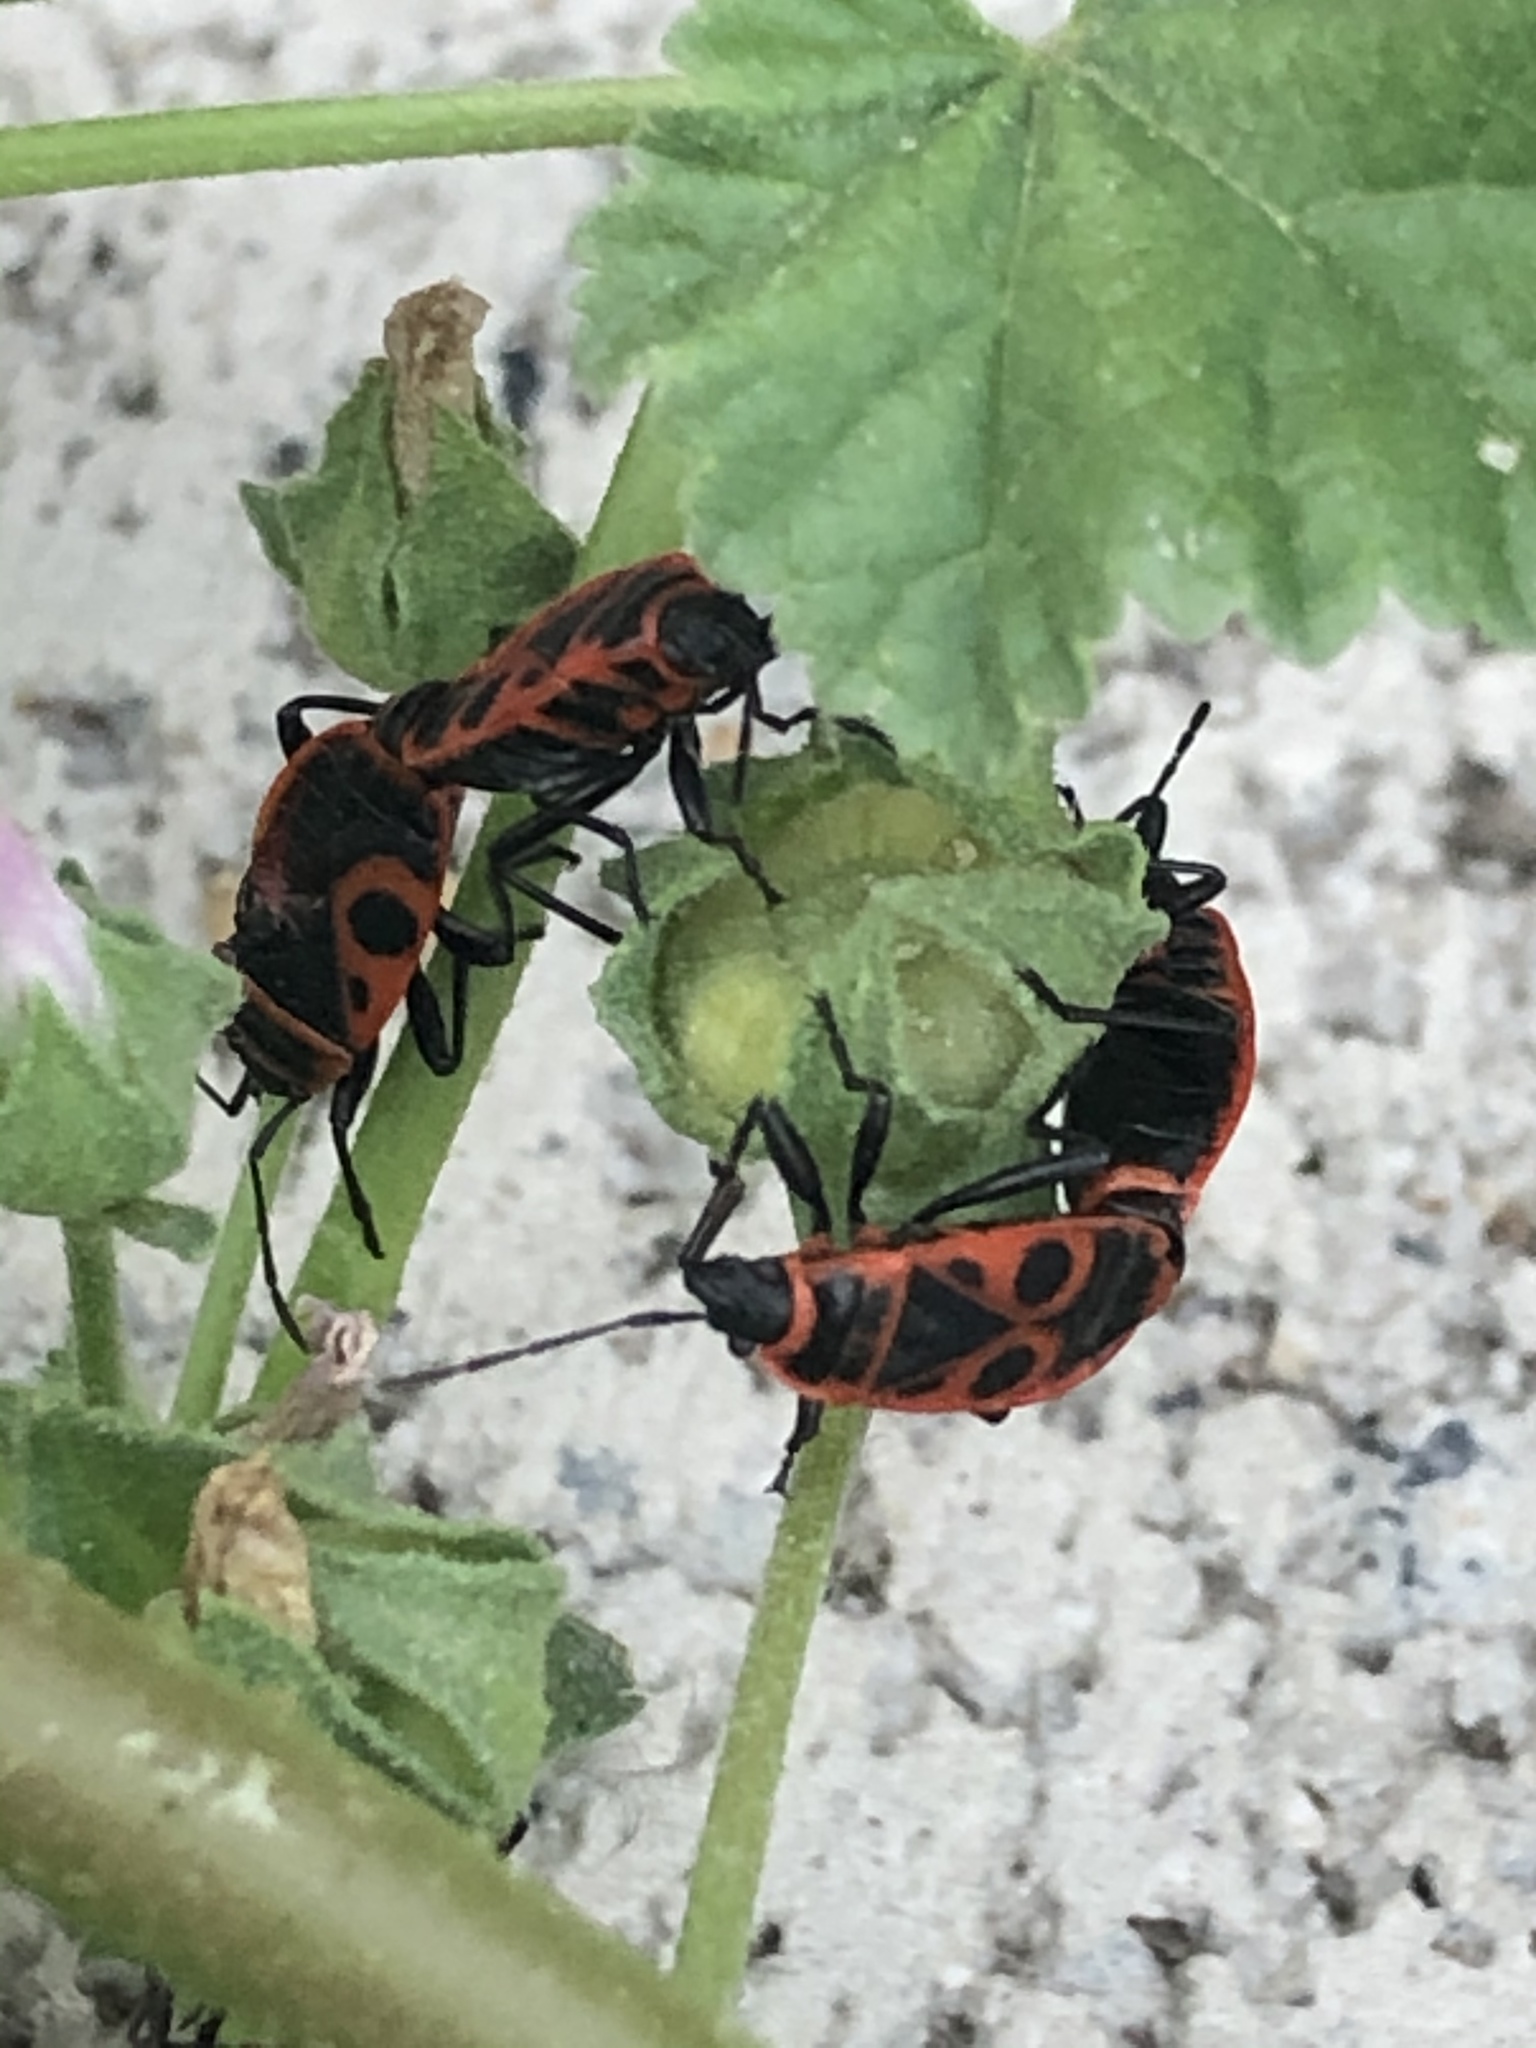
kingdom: Animalia
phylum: Arthropoda
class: Insecta
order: Hemiptera
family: Pyrrhocoridae
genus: Pyrrhocoris
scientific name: Pyrrhocoris apterus
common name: Firebug
